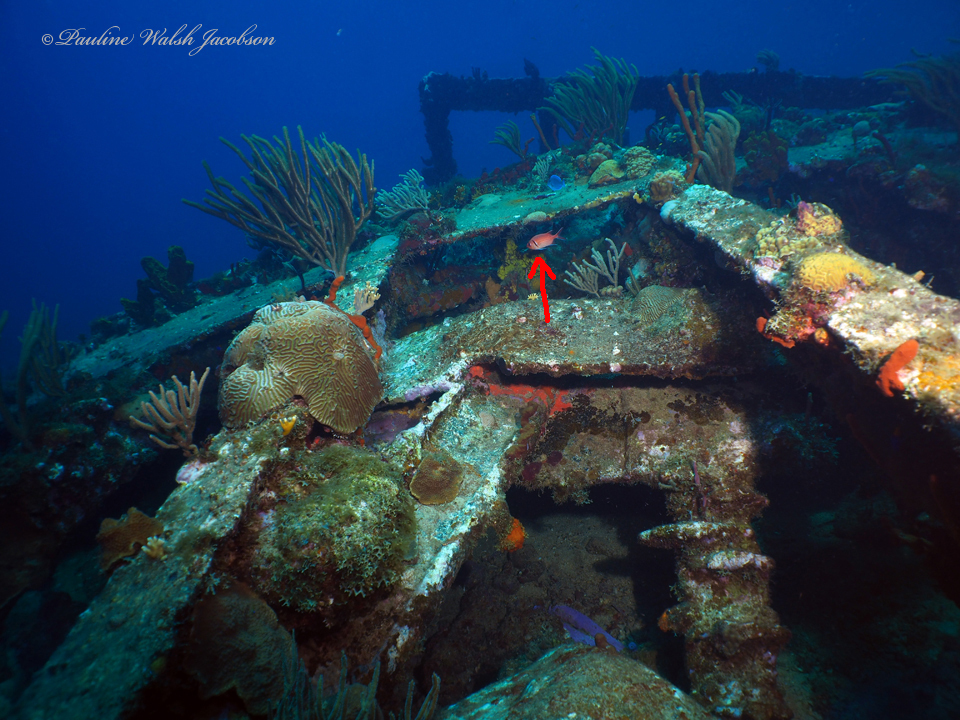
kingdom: Animalia
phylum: Chordata
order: Beryciformes
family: Holocentridae
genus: Myripristis
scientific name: Myripristis jacobus
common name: Blackbar soldierfish
